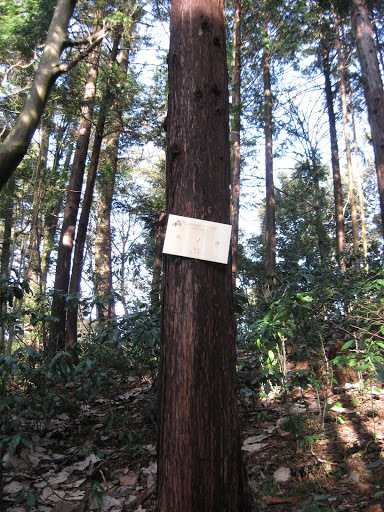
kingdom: Plantae
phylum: Tracheophyta
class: Pinopsida
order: Pinales
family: Cupressaceae
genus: Chamaecyparis
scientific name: Chamaecyparis obtusa
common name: Hinoki false cypress
